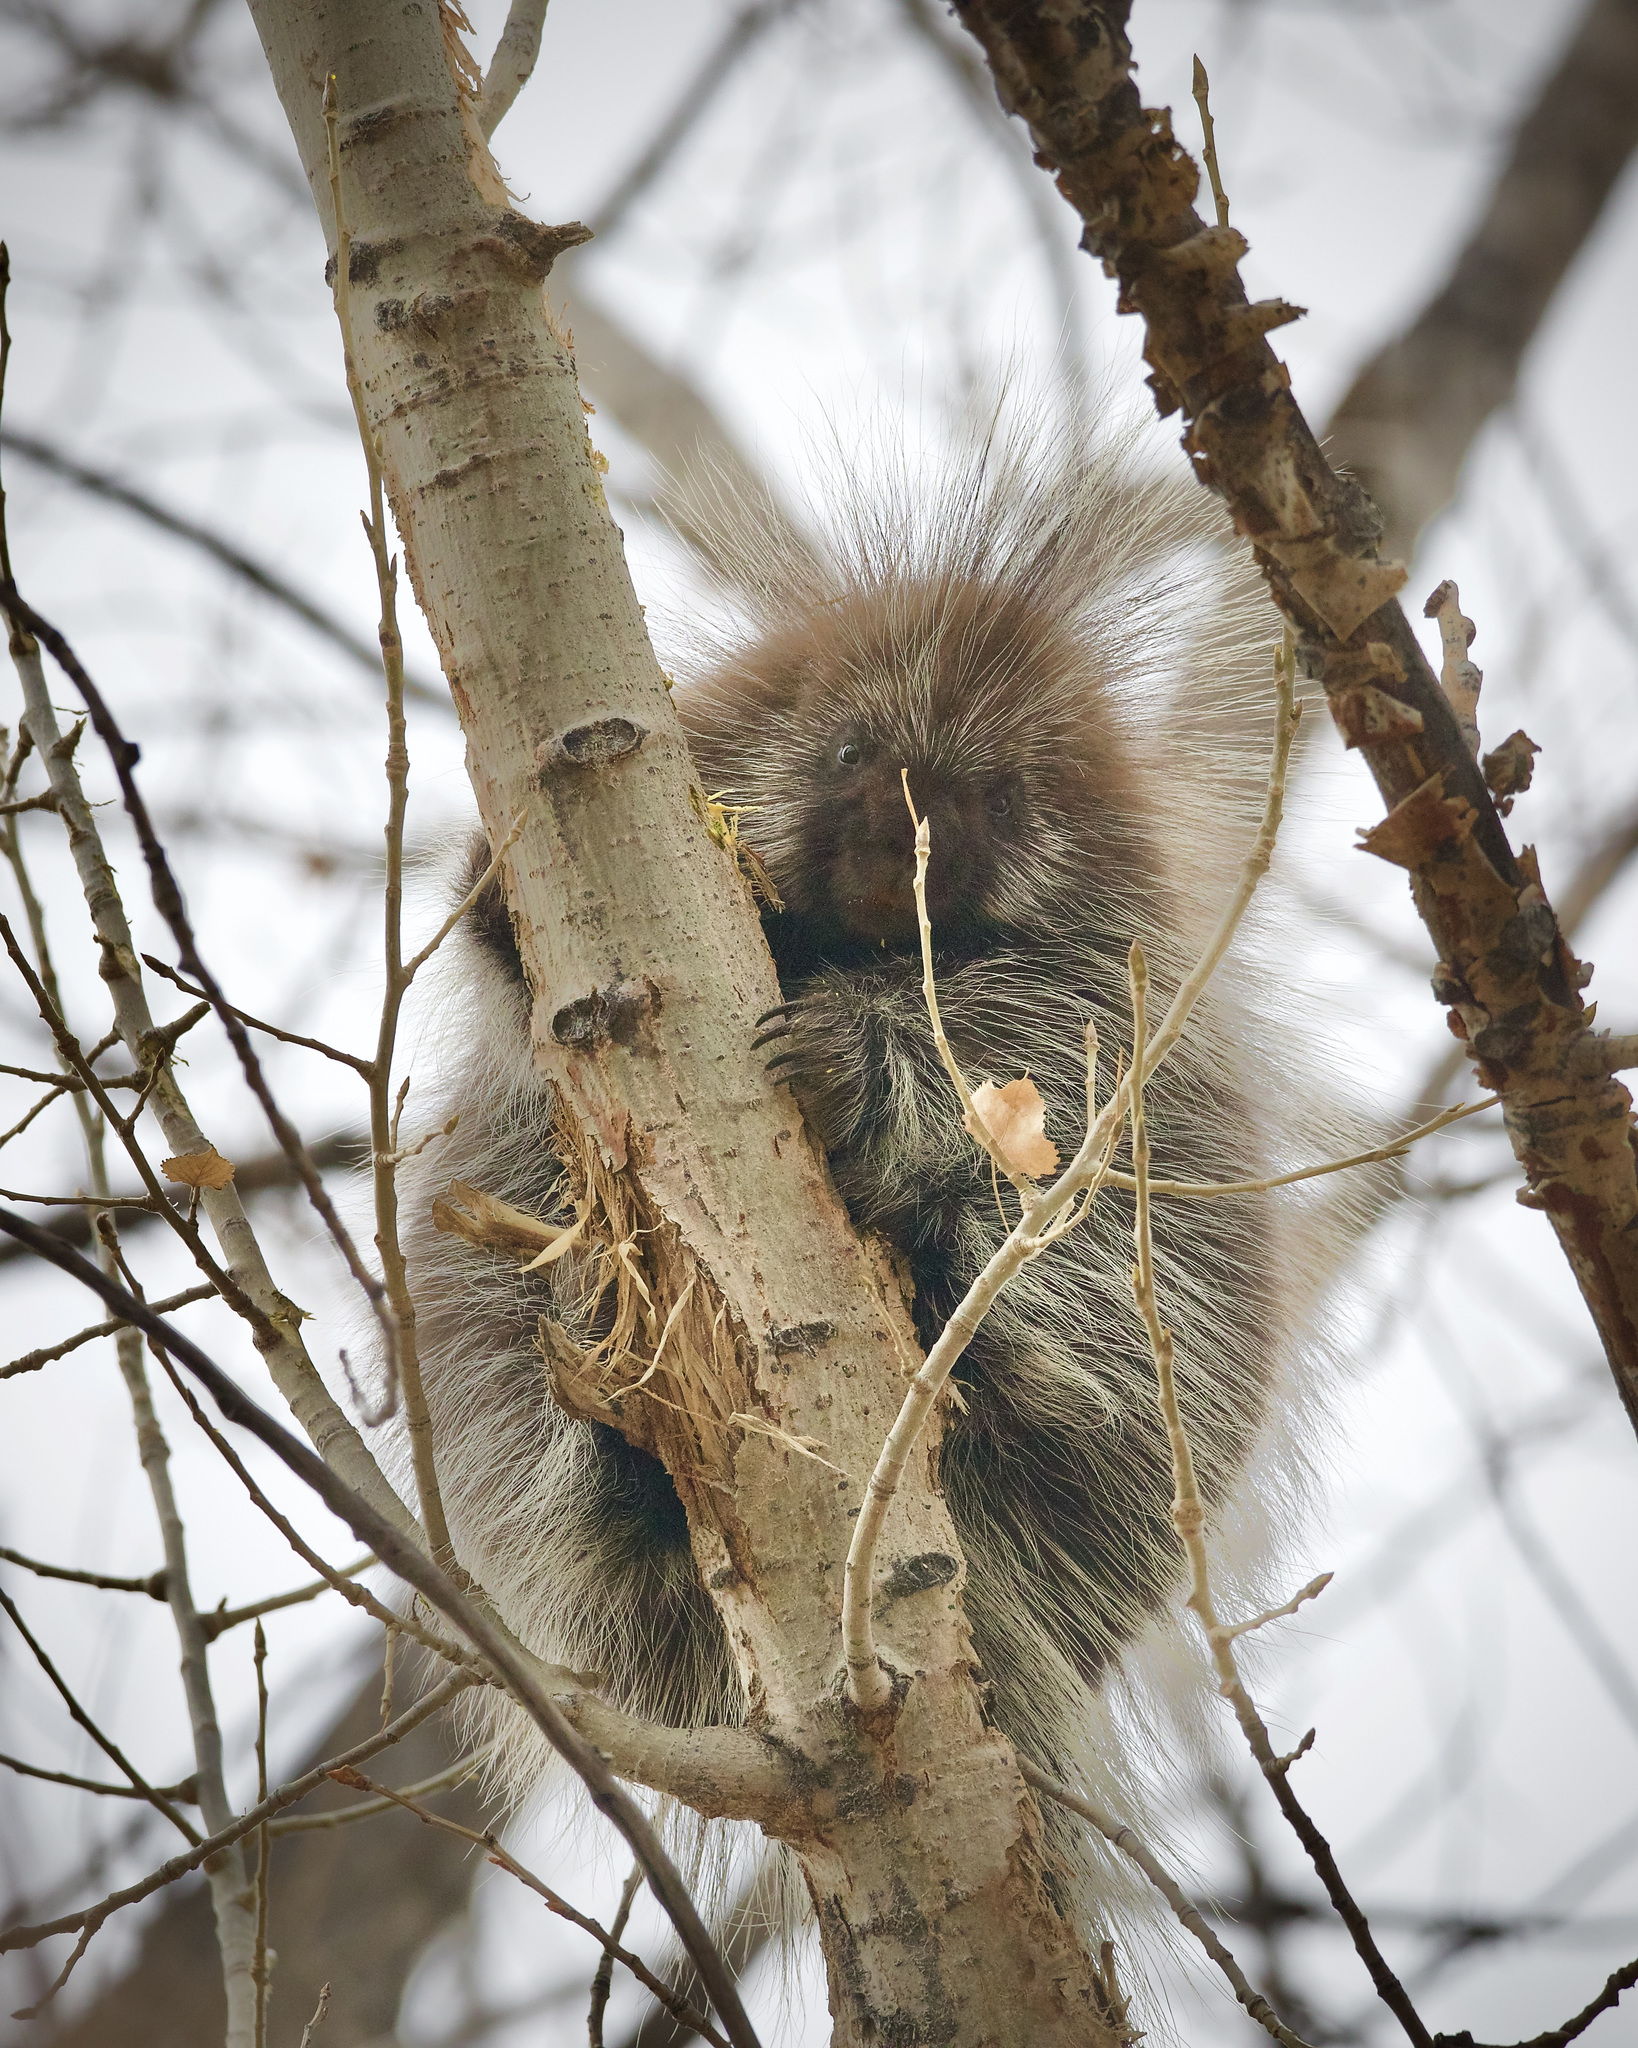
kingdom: Animalia
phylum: Chordata
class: Mammalia
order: Rodentia
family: Erethizontidae
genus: Erethizon
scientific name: Erethizon dorsatus
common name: North american porcupine
